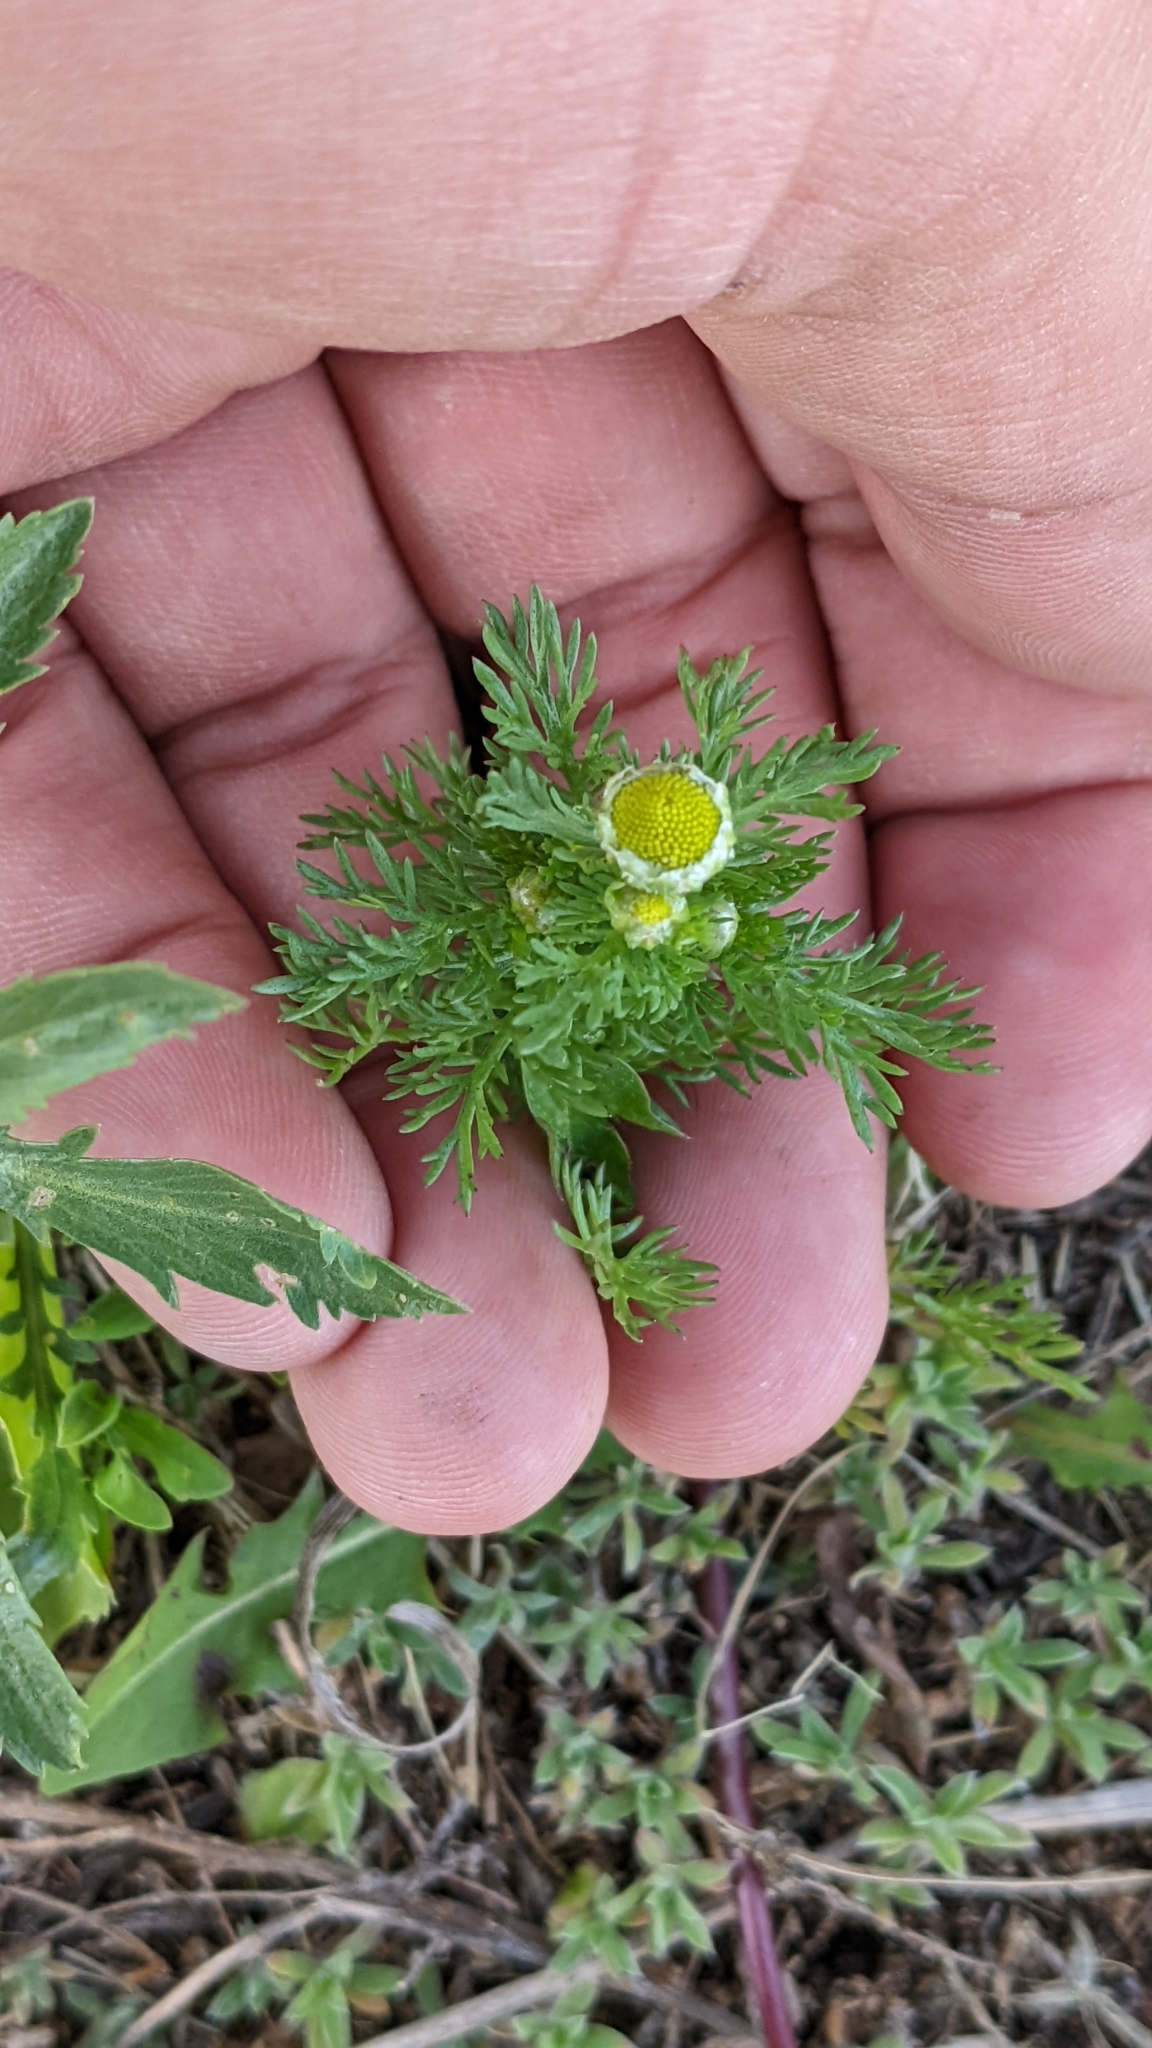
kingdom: Plantae
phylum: Tracheophyta
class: Magnoliopsida
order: Asterales
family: Asteraceae
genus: Matricaria
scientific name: Matricaria discoidea
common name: Disc mayweed
